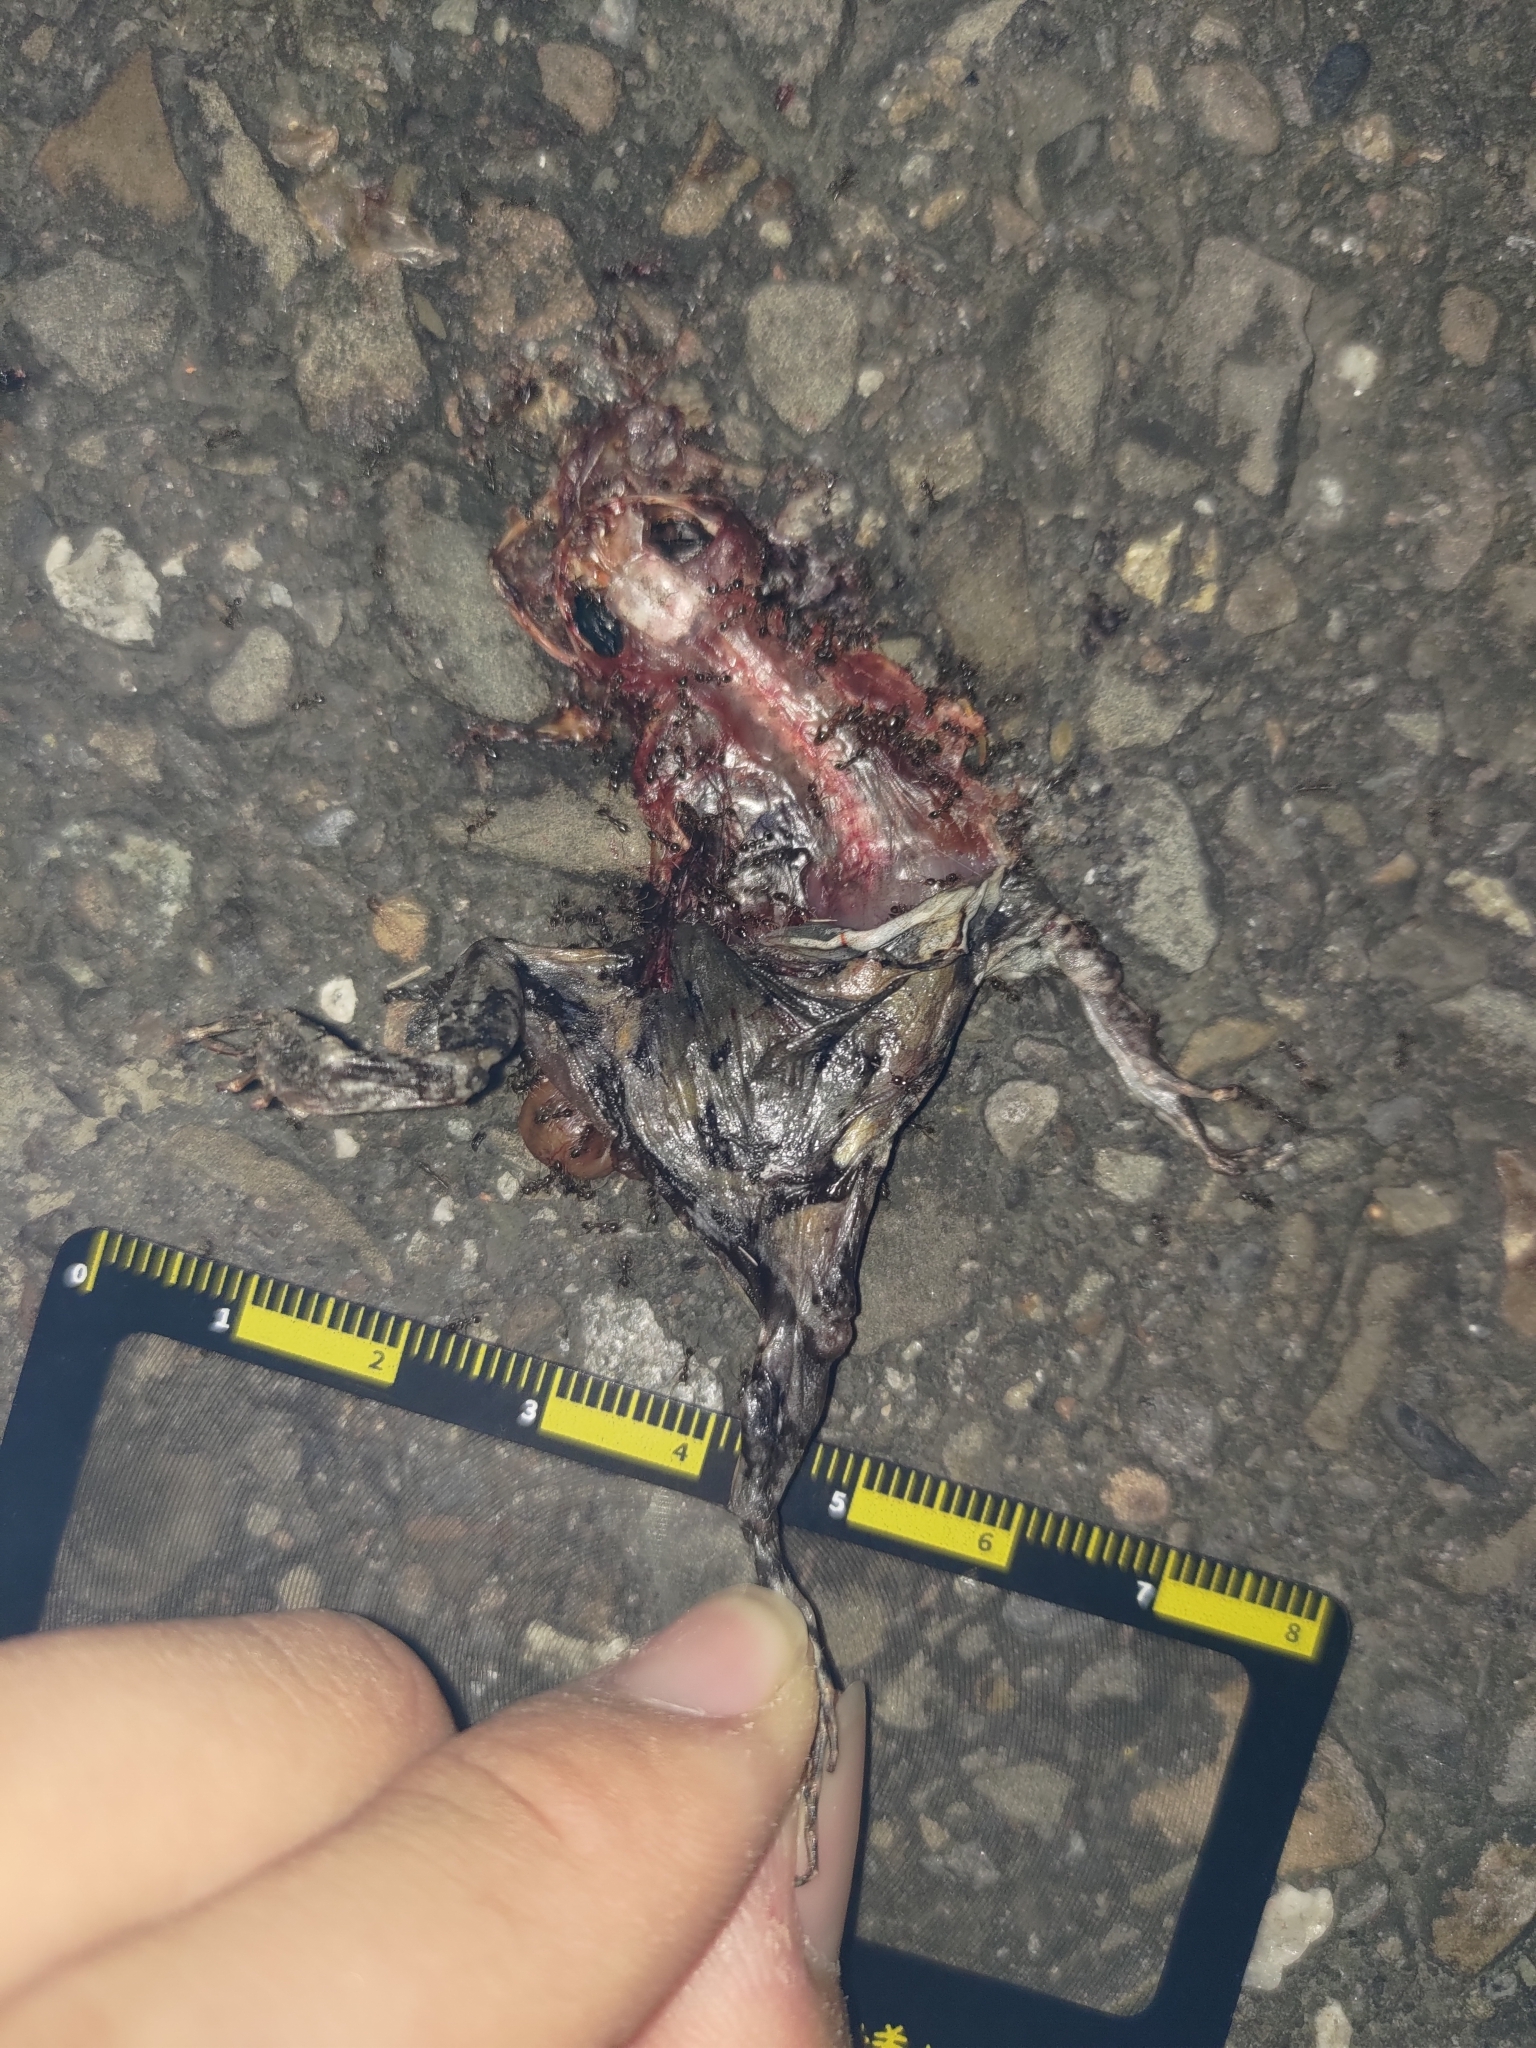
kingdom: Animalia
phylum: Chordata
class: Amphibia
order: Anura
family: Microhylidae
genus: Kaloula
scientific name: Kaloula pulchra
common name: Common,banded bullfrog
